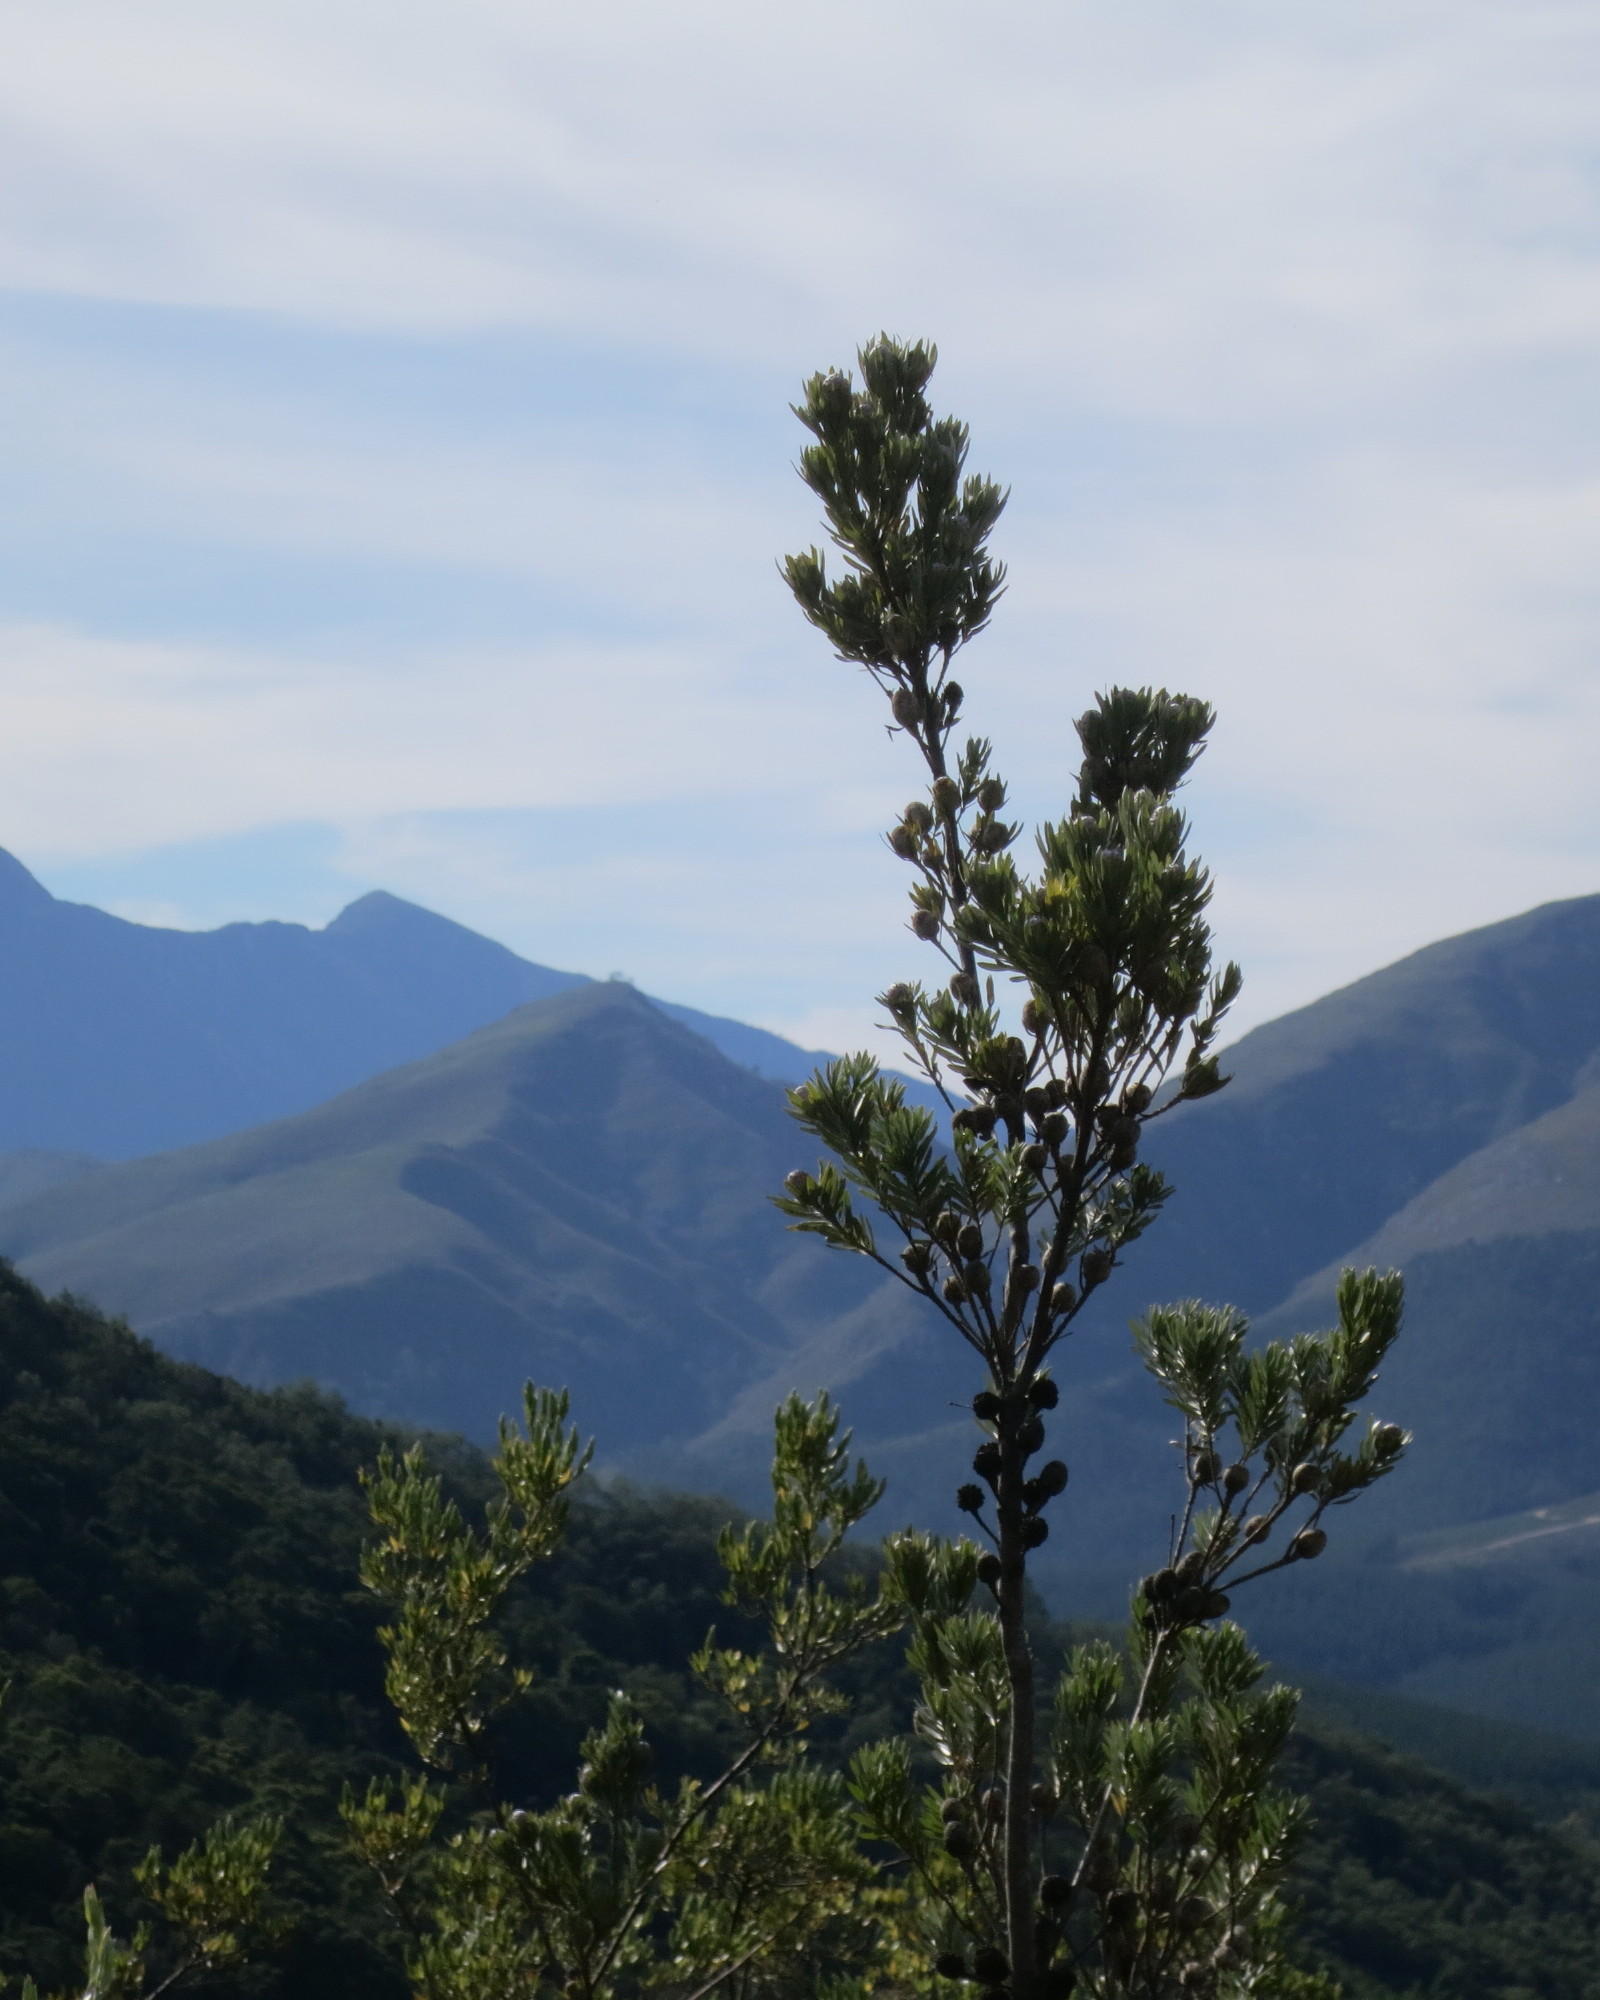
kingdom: Plantae
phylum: Tracheophyta
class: Magnoliopsida
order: Proteales
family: Proteaceae
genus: Leucadendron
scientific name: Leucadendron uliginosum
